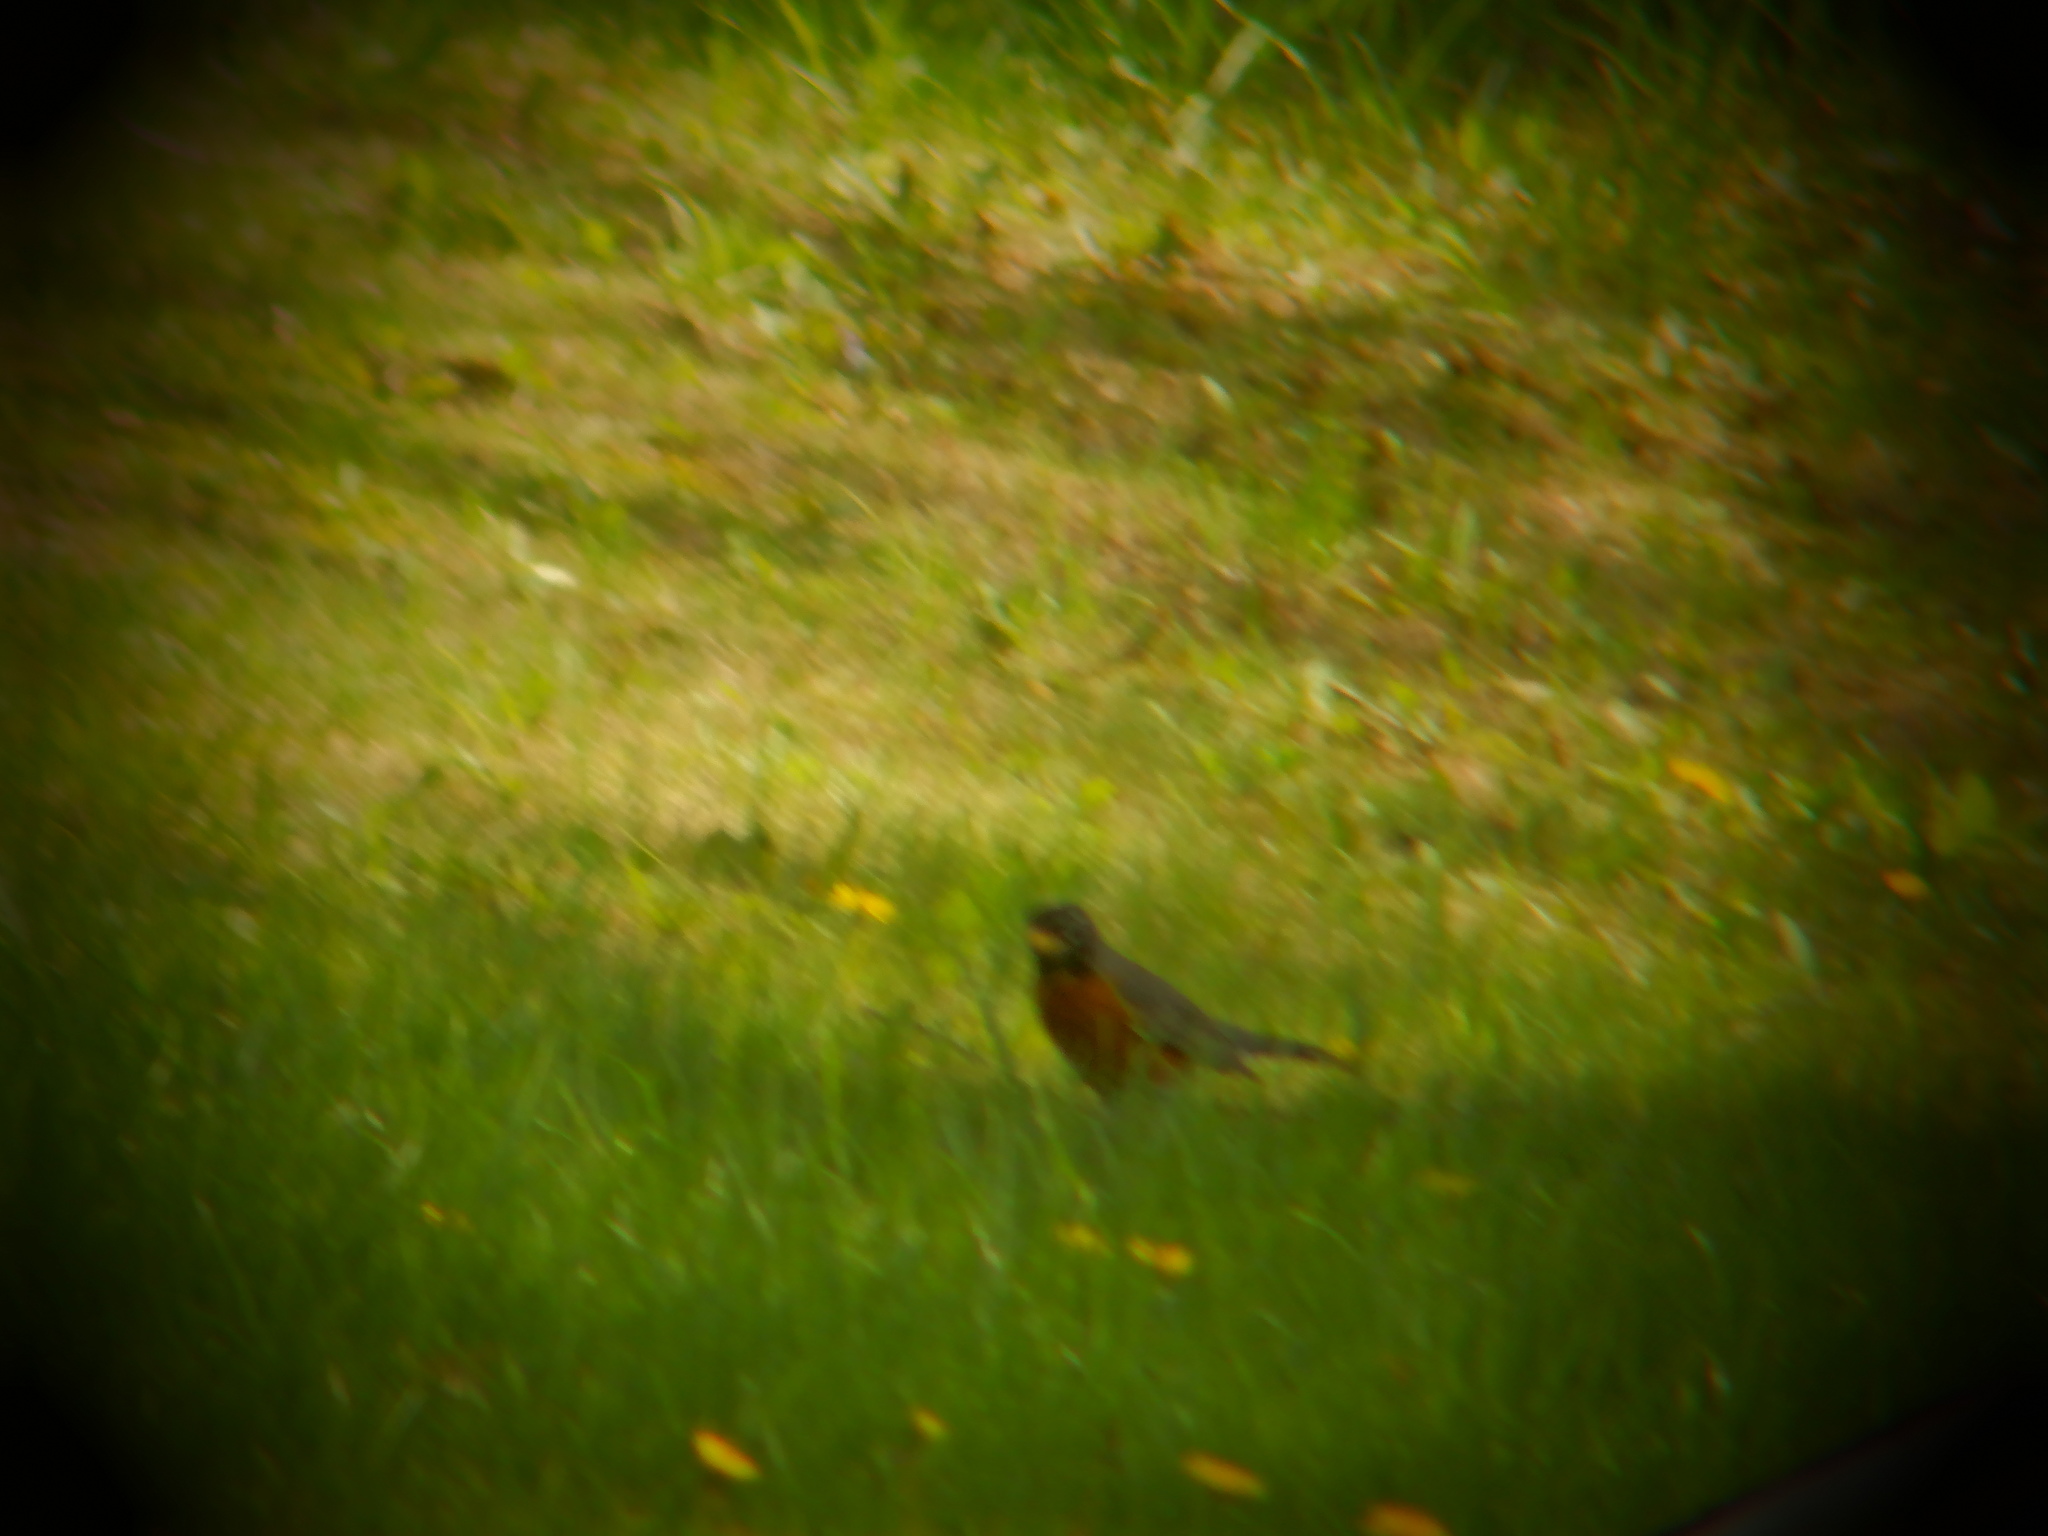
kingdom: Animalia
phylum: Chordata
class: Aves
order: Passeriformes
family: Turdidae
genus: Turdus
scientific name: Turdus migratorius
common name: American robin
